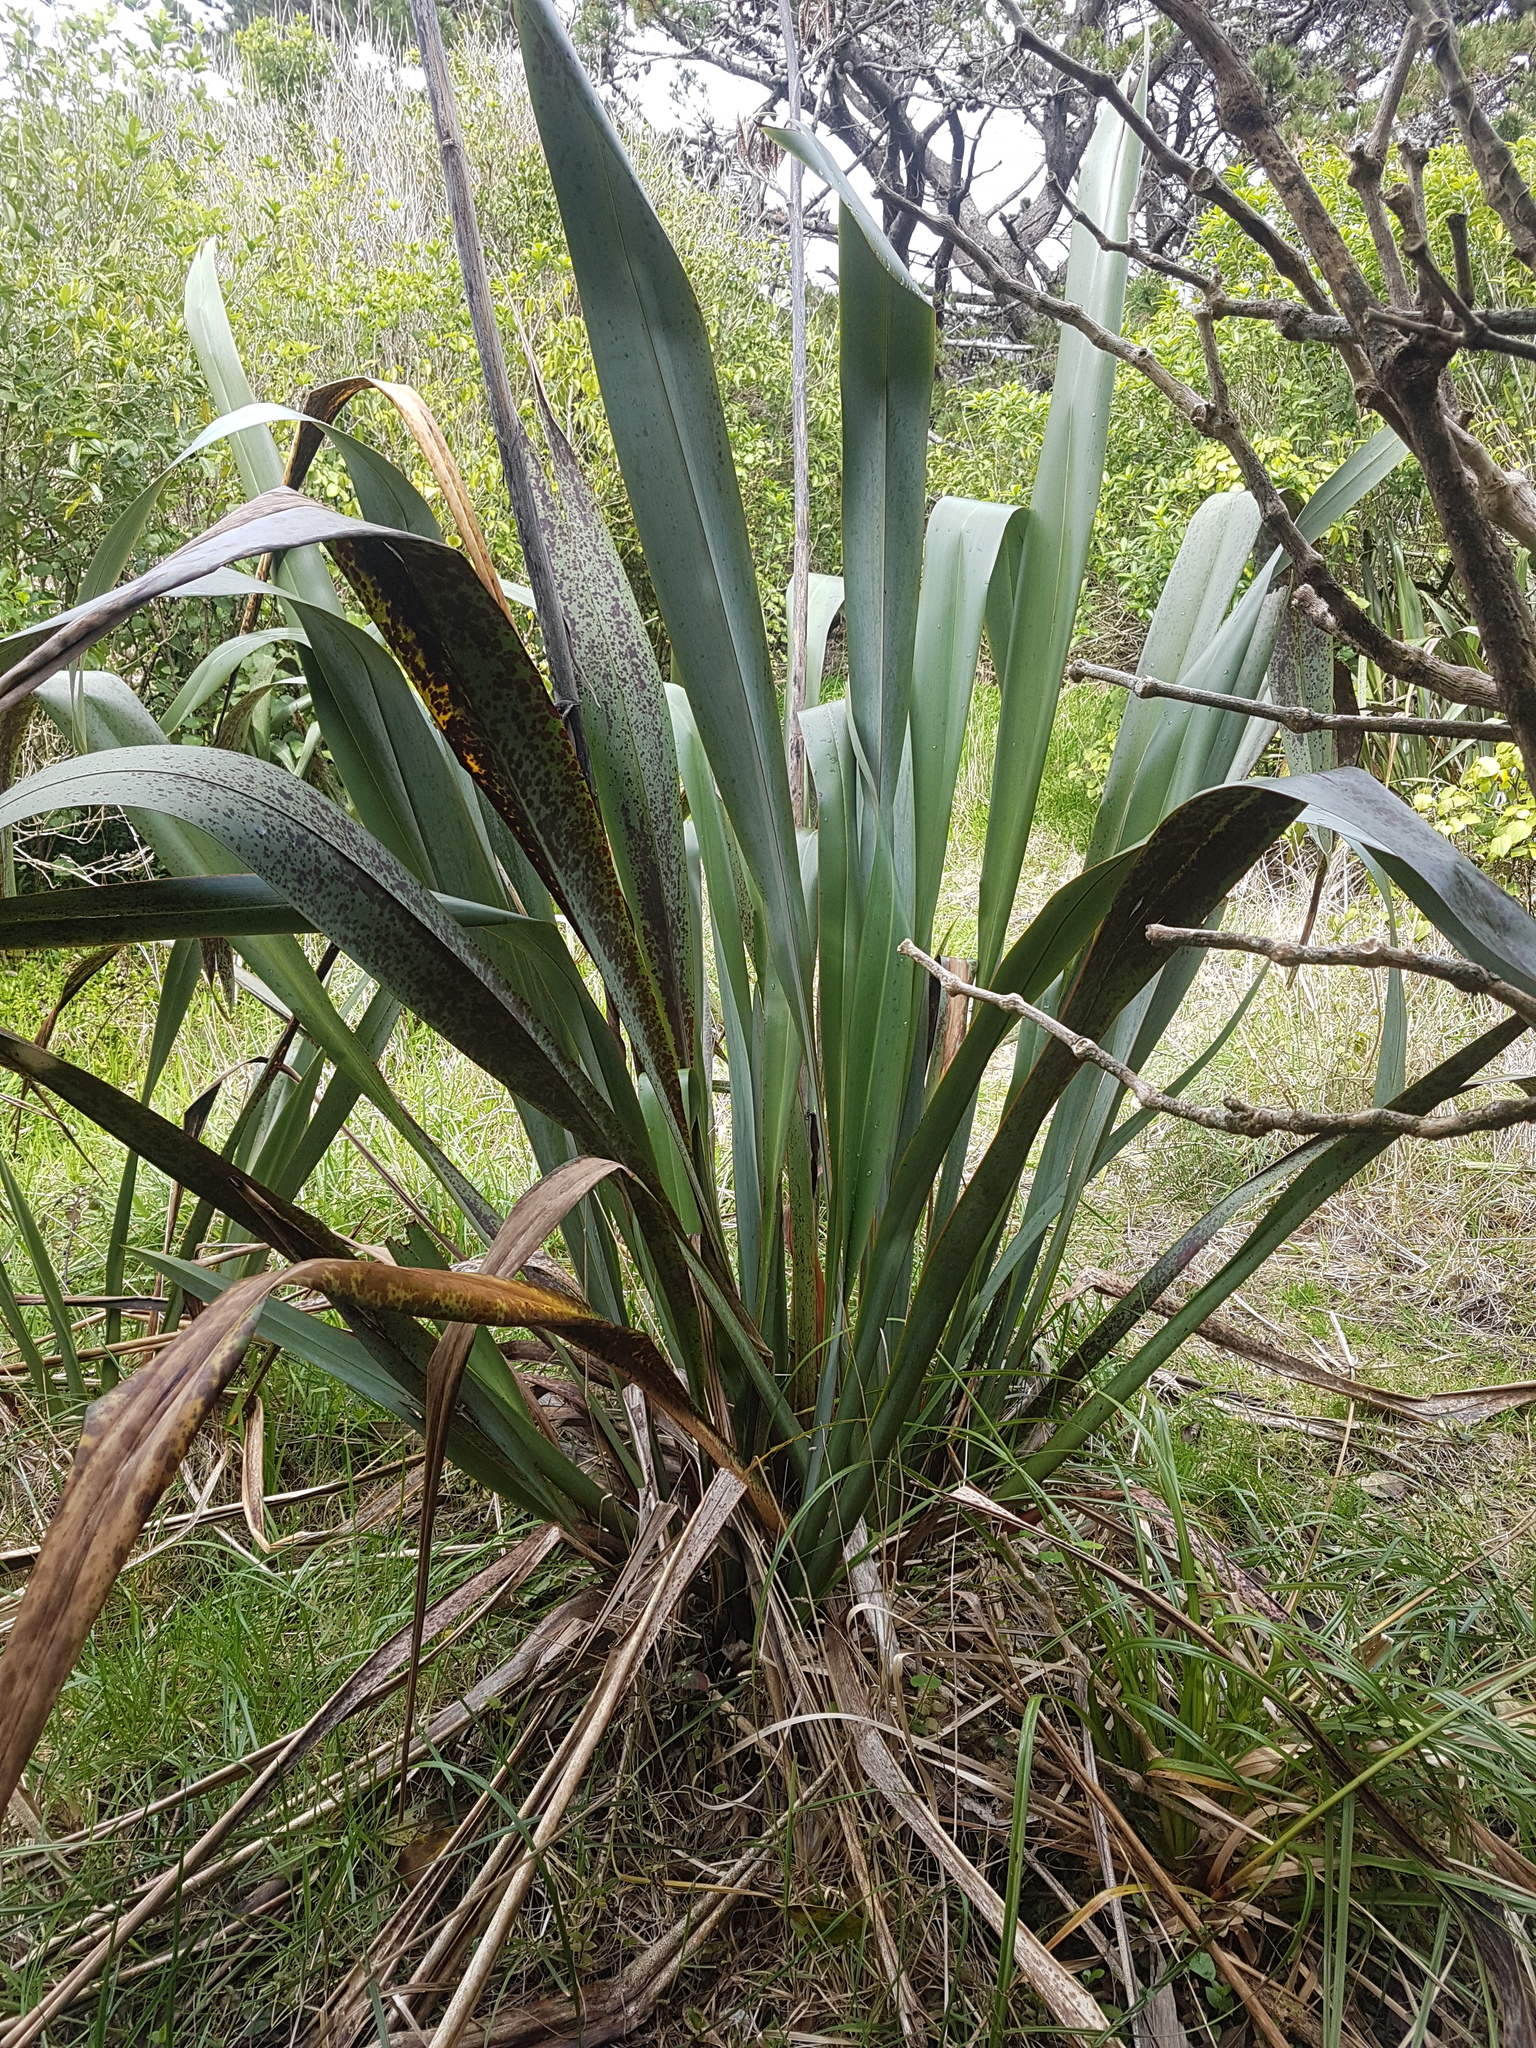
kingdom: Plantae
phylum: Tracheophyta
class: Liliopsida
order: Asparagales
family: Asphodelaceae
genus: Phormium
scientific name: Phormium tenax
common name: New zealand flax
